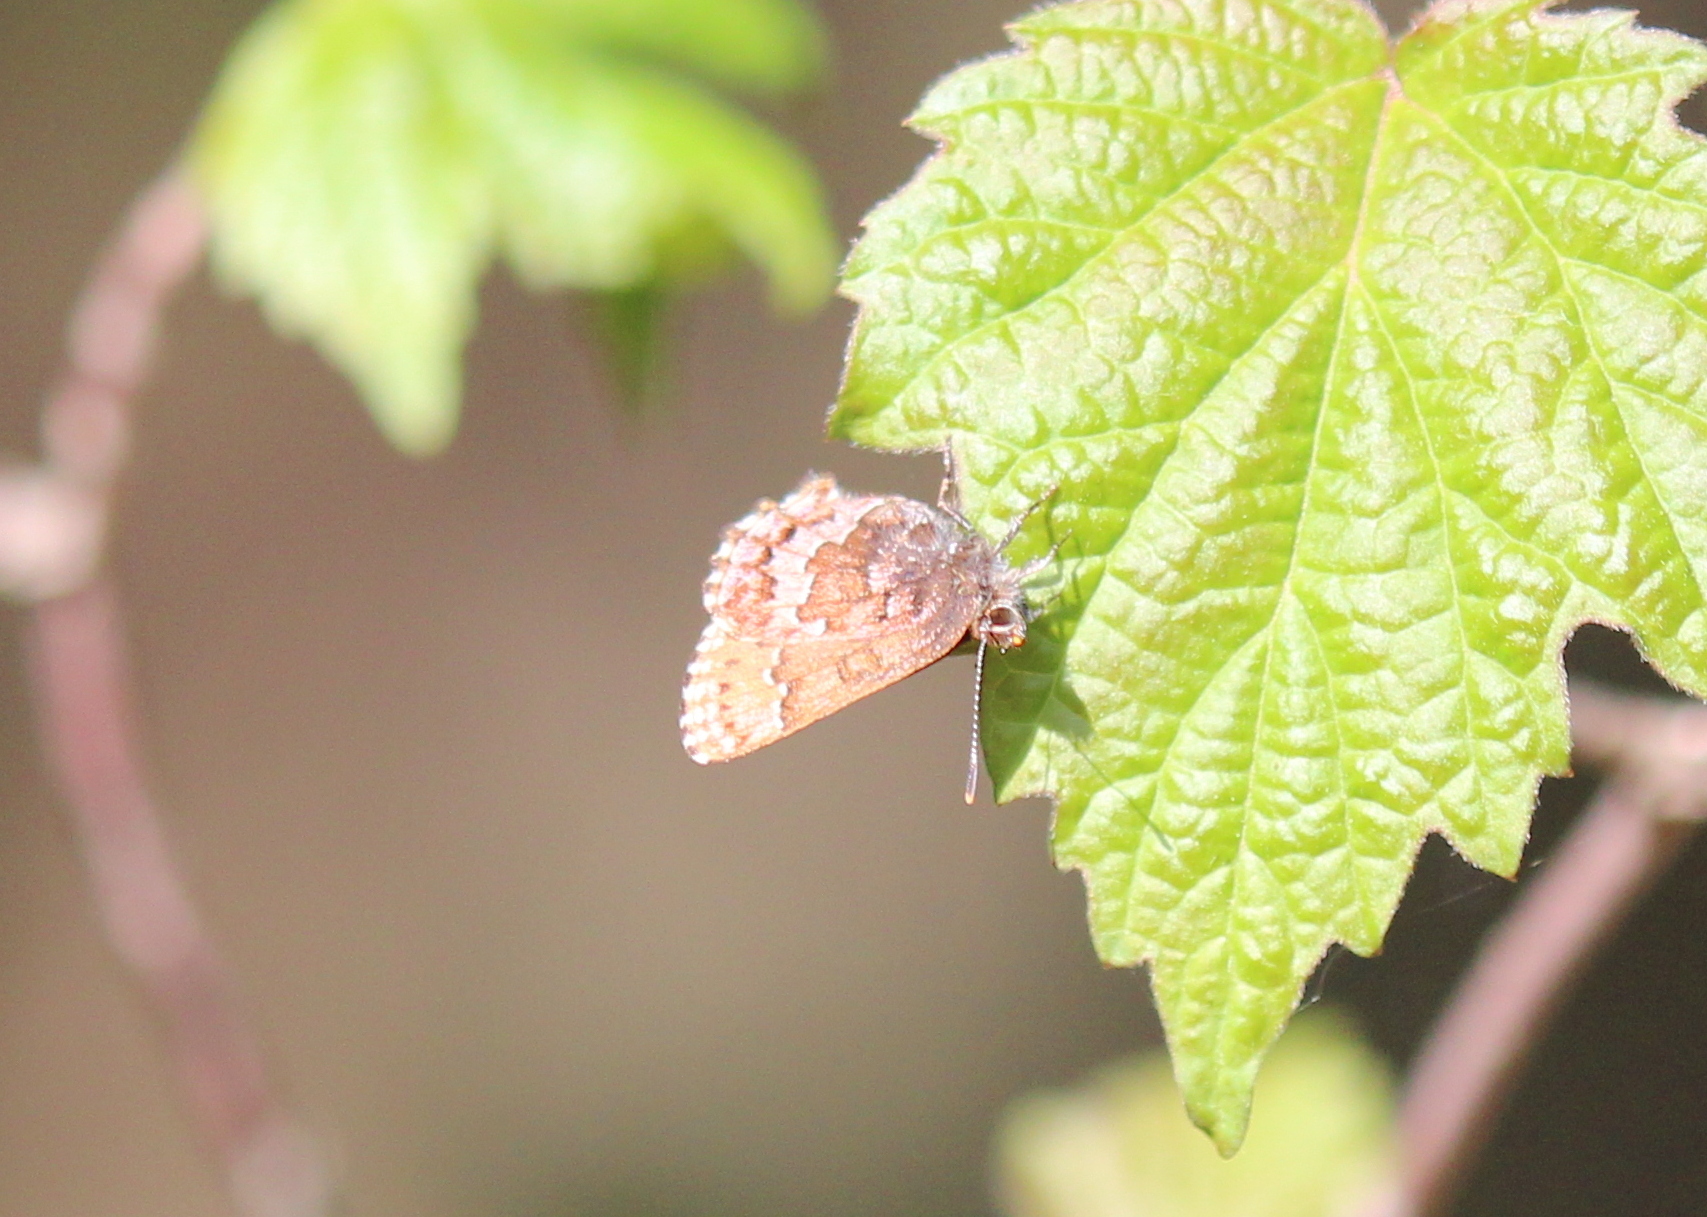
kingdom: Animalia
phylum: Arthropoda
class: Insecta
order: Lepidoptera
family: Lycaenidae
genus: Incisalia
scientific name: Incisalia niphon
